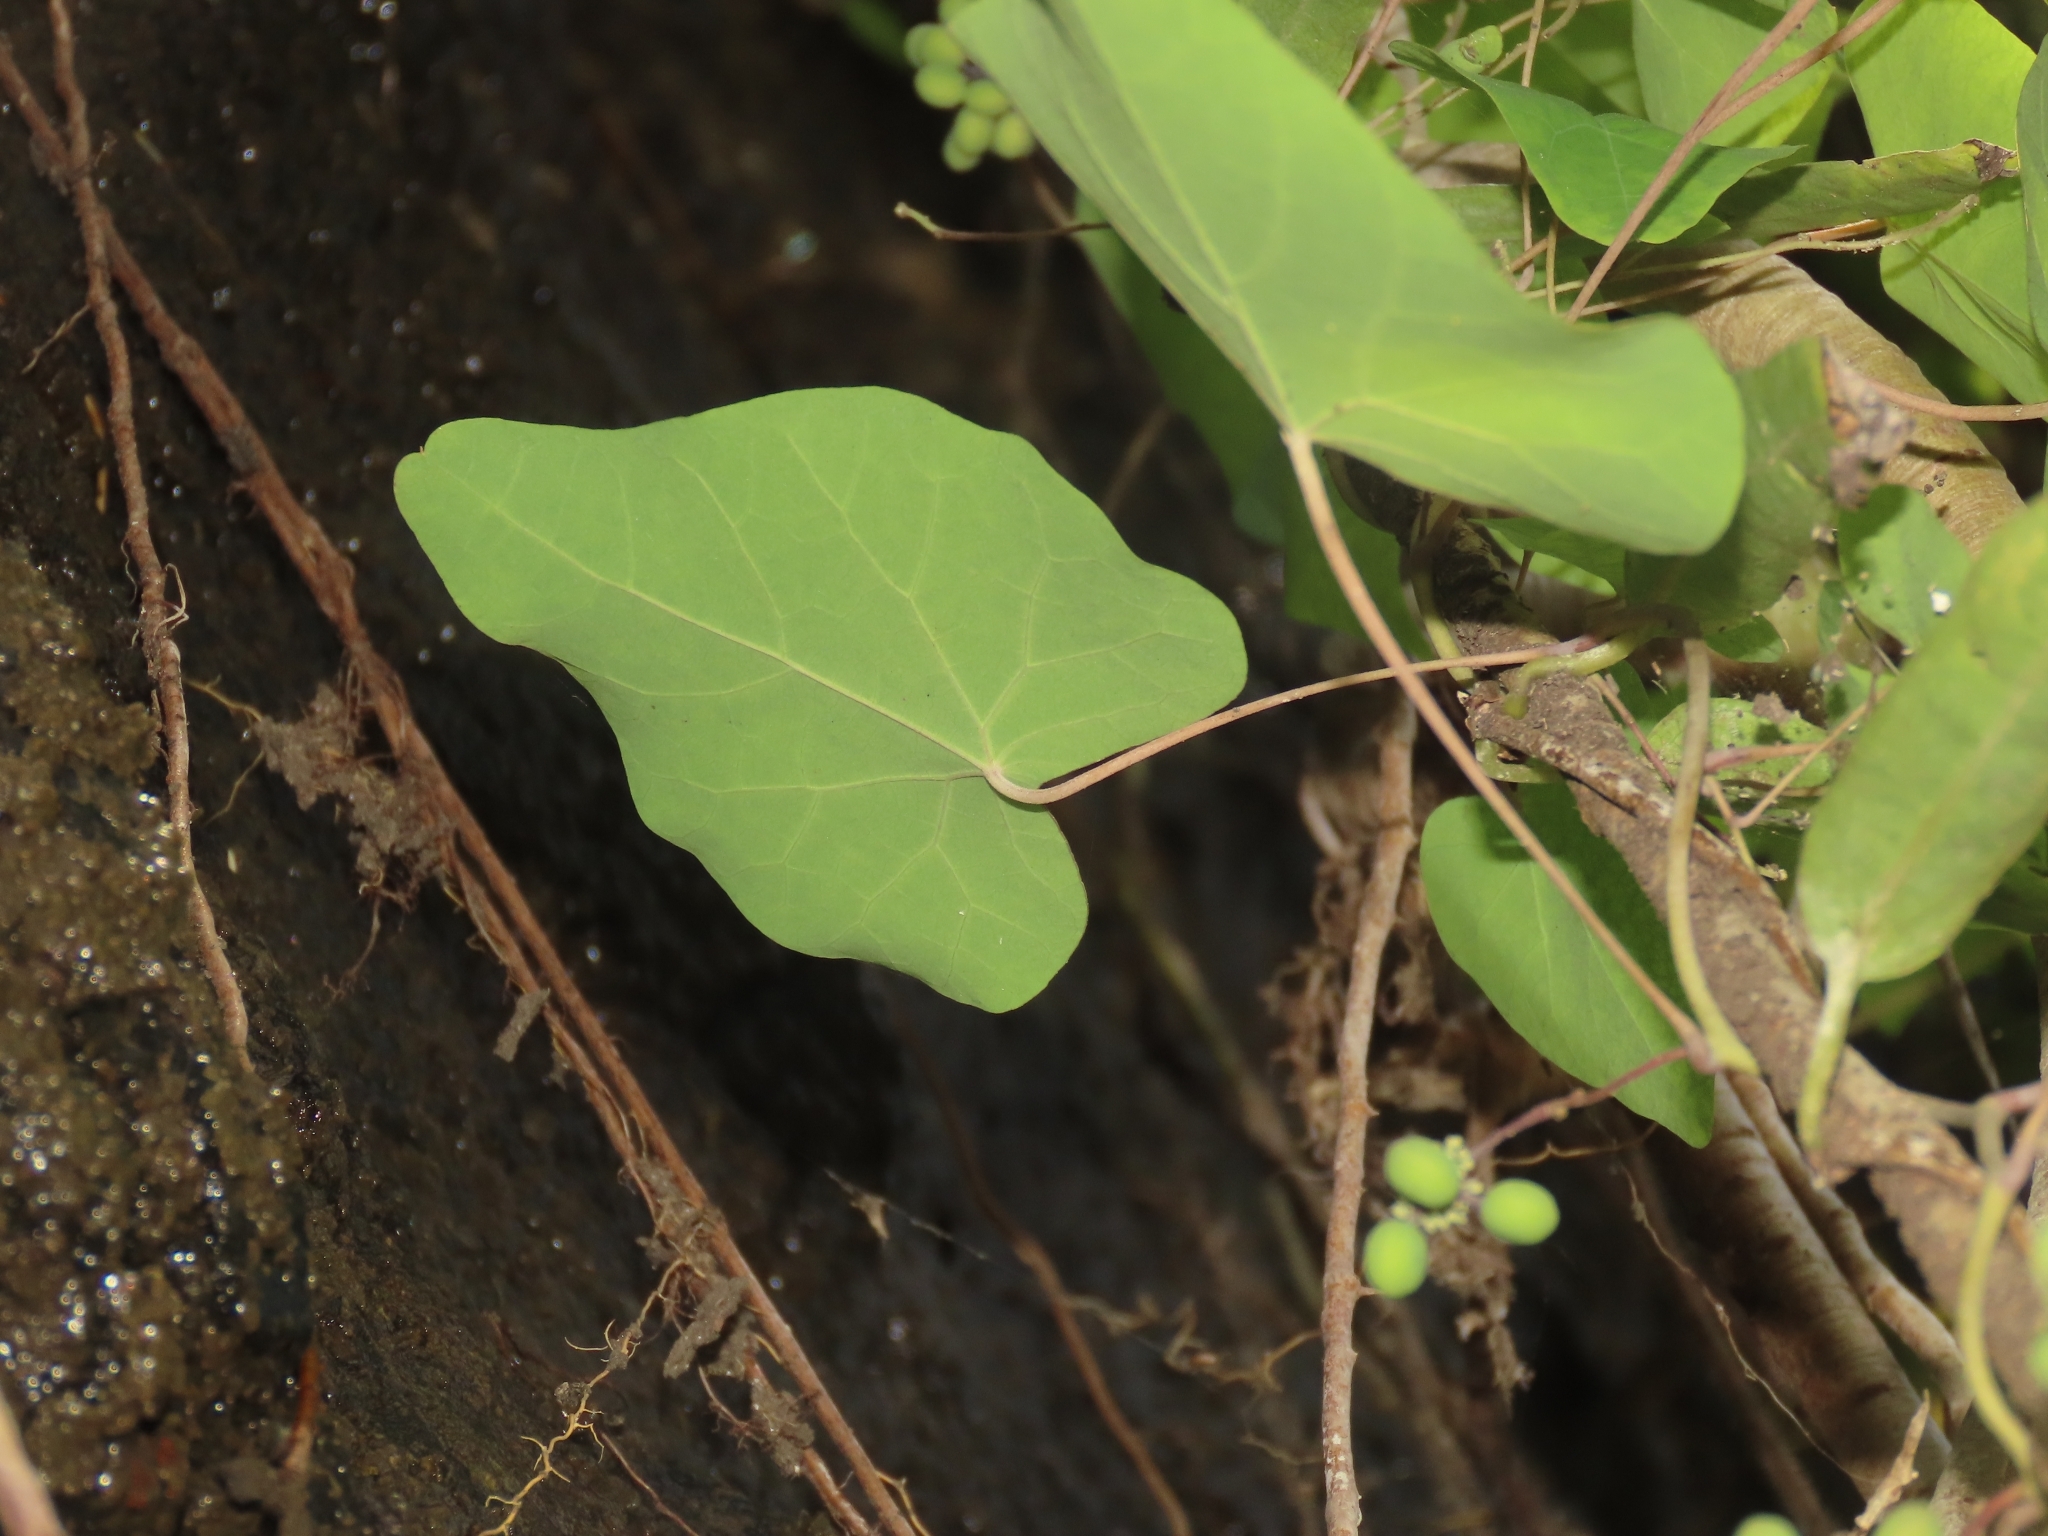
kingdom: Plantae
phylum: Tracheophyta
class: Magnoliopsida
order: Ranunculales
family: Menispermaceae
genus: Stephania
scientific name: Stephania tetrandra
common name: Stephania-root
